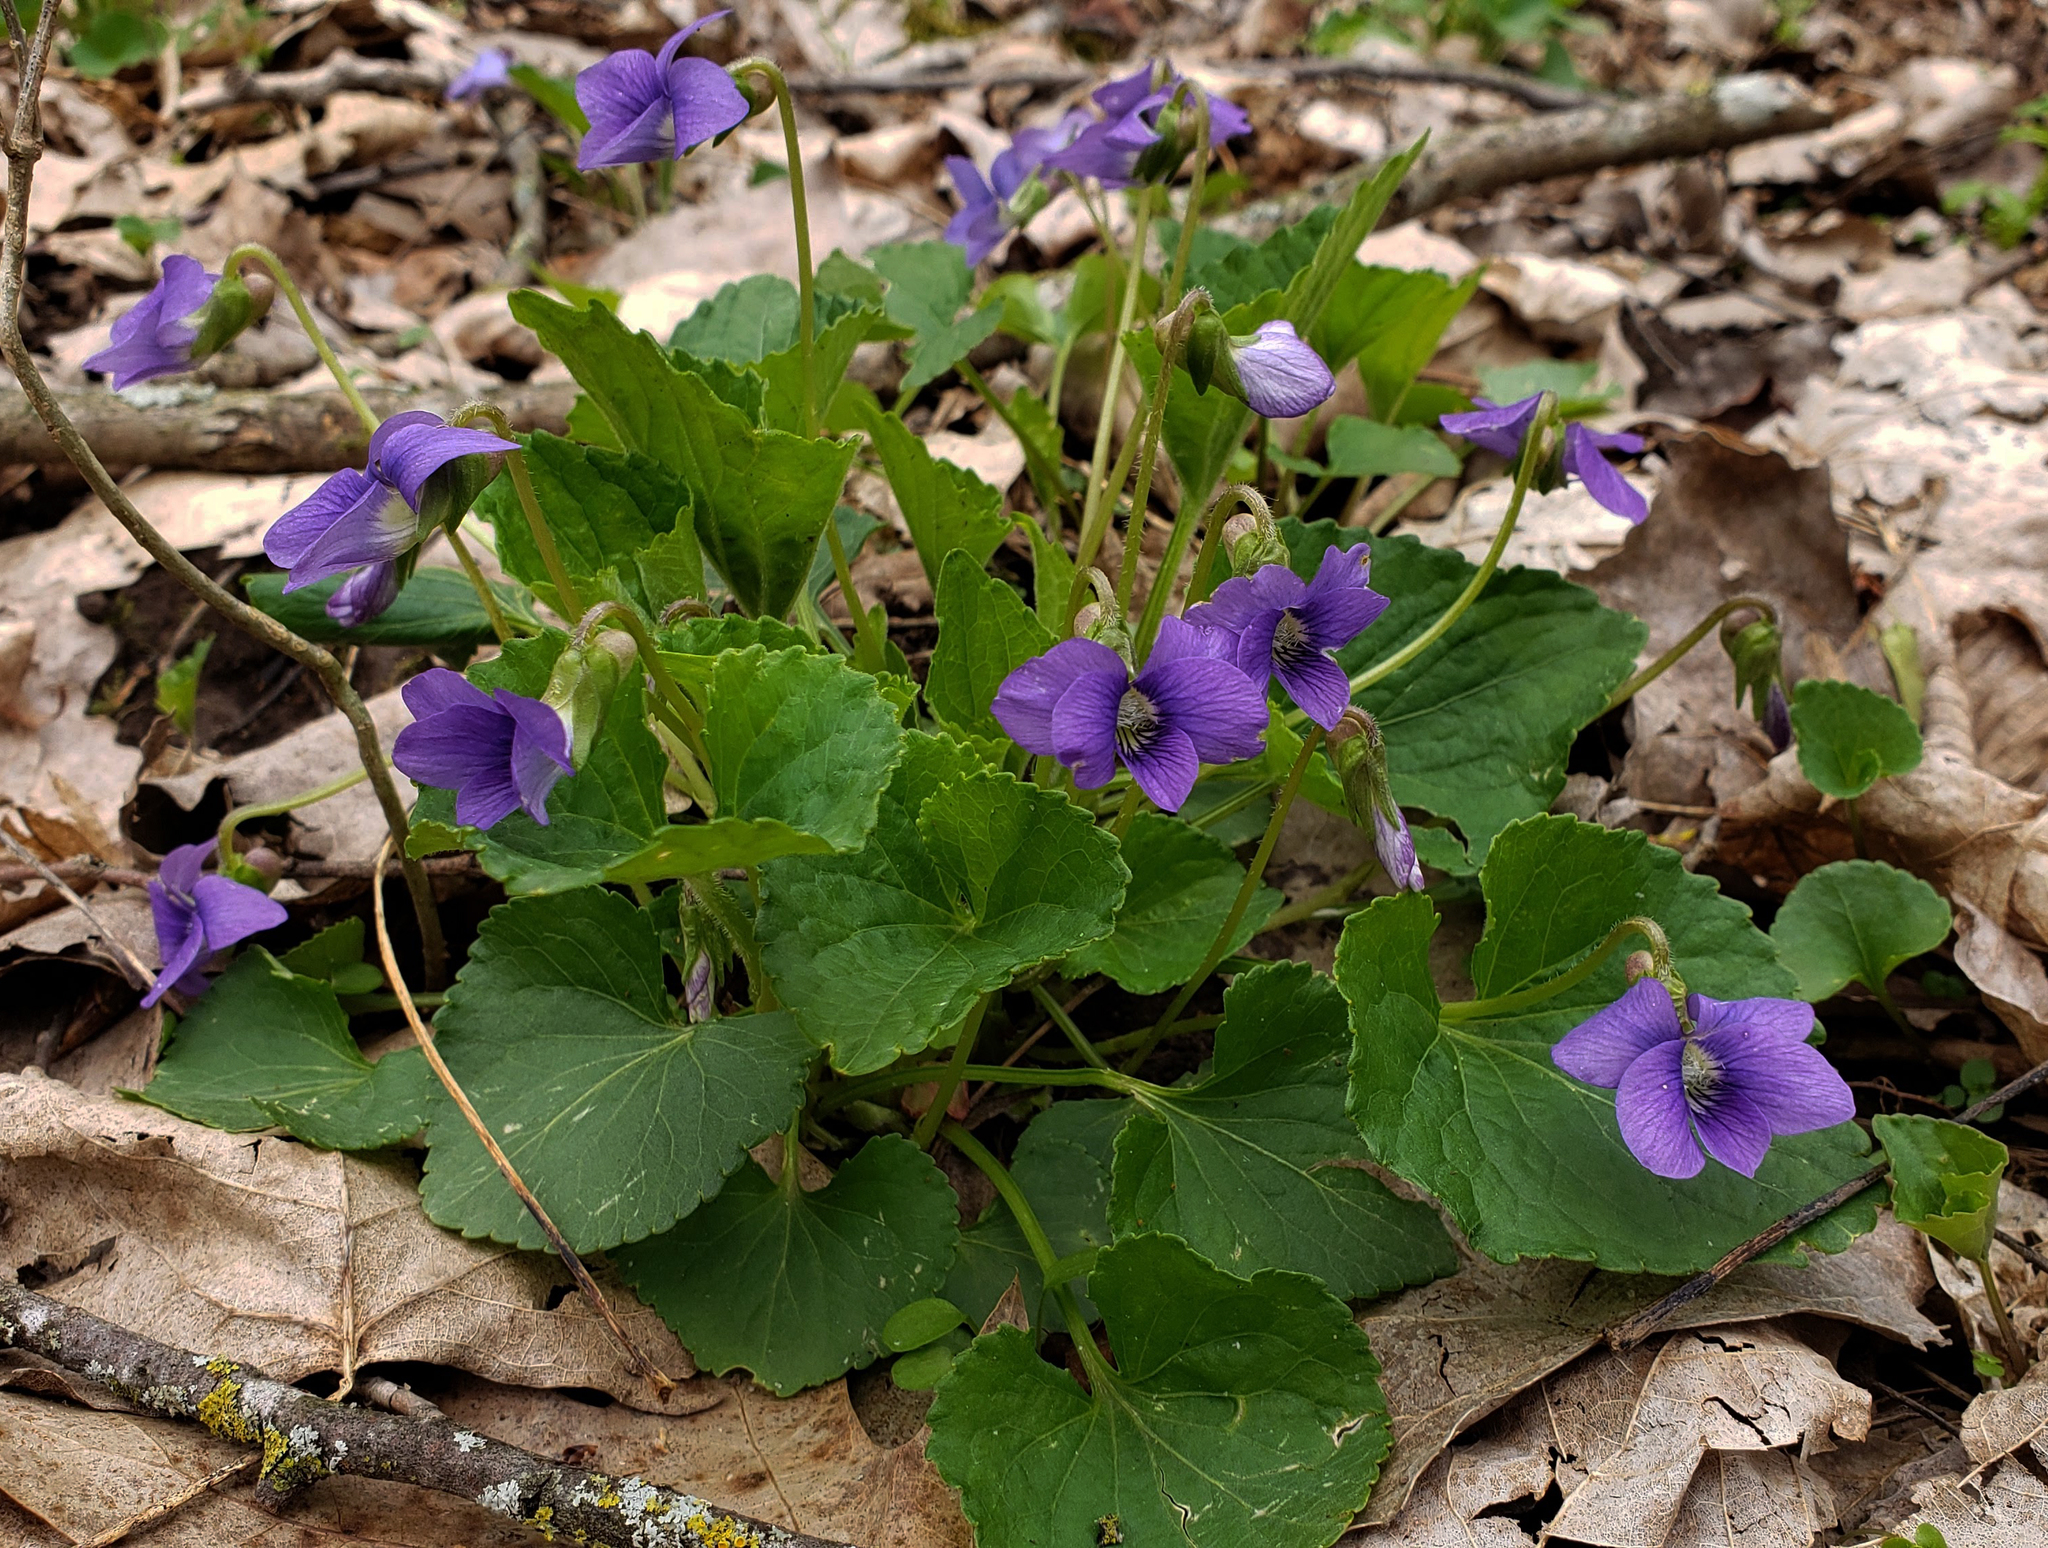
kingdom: Plantae
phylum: Tracheophyta
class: Magnoliopsida
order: Malpighiales
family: Violaceae
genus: Viola
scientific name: Viola sororia
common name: Dooryard violet
